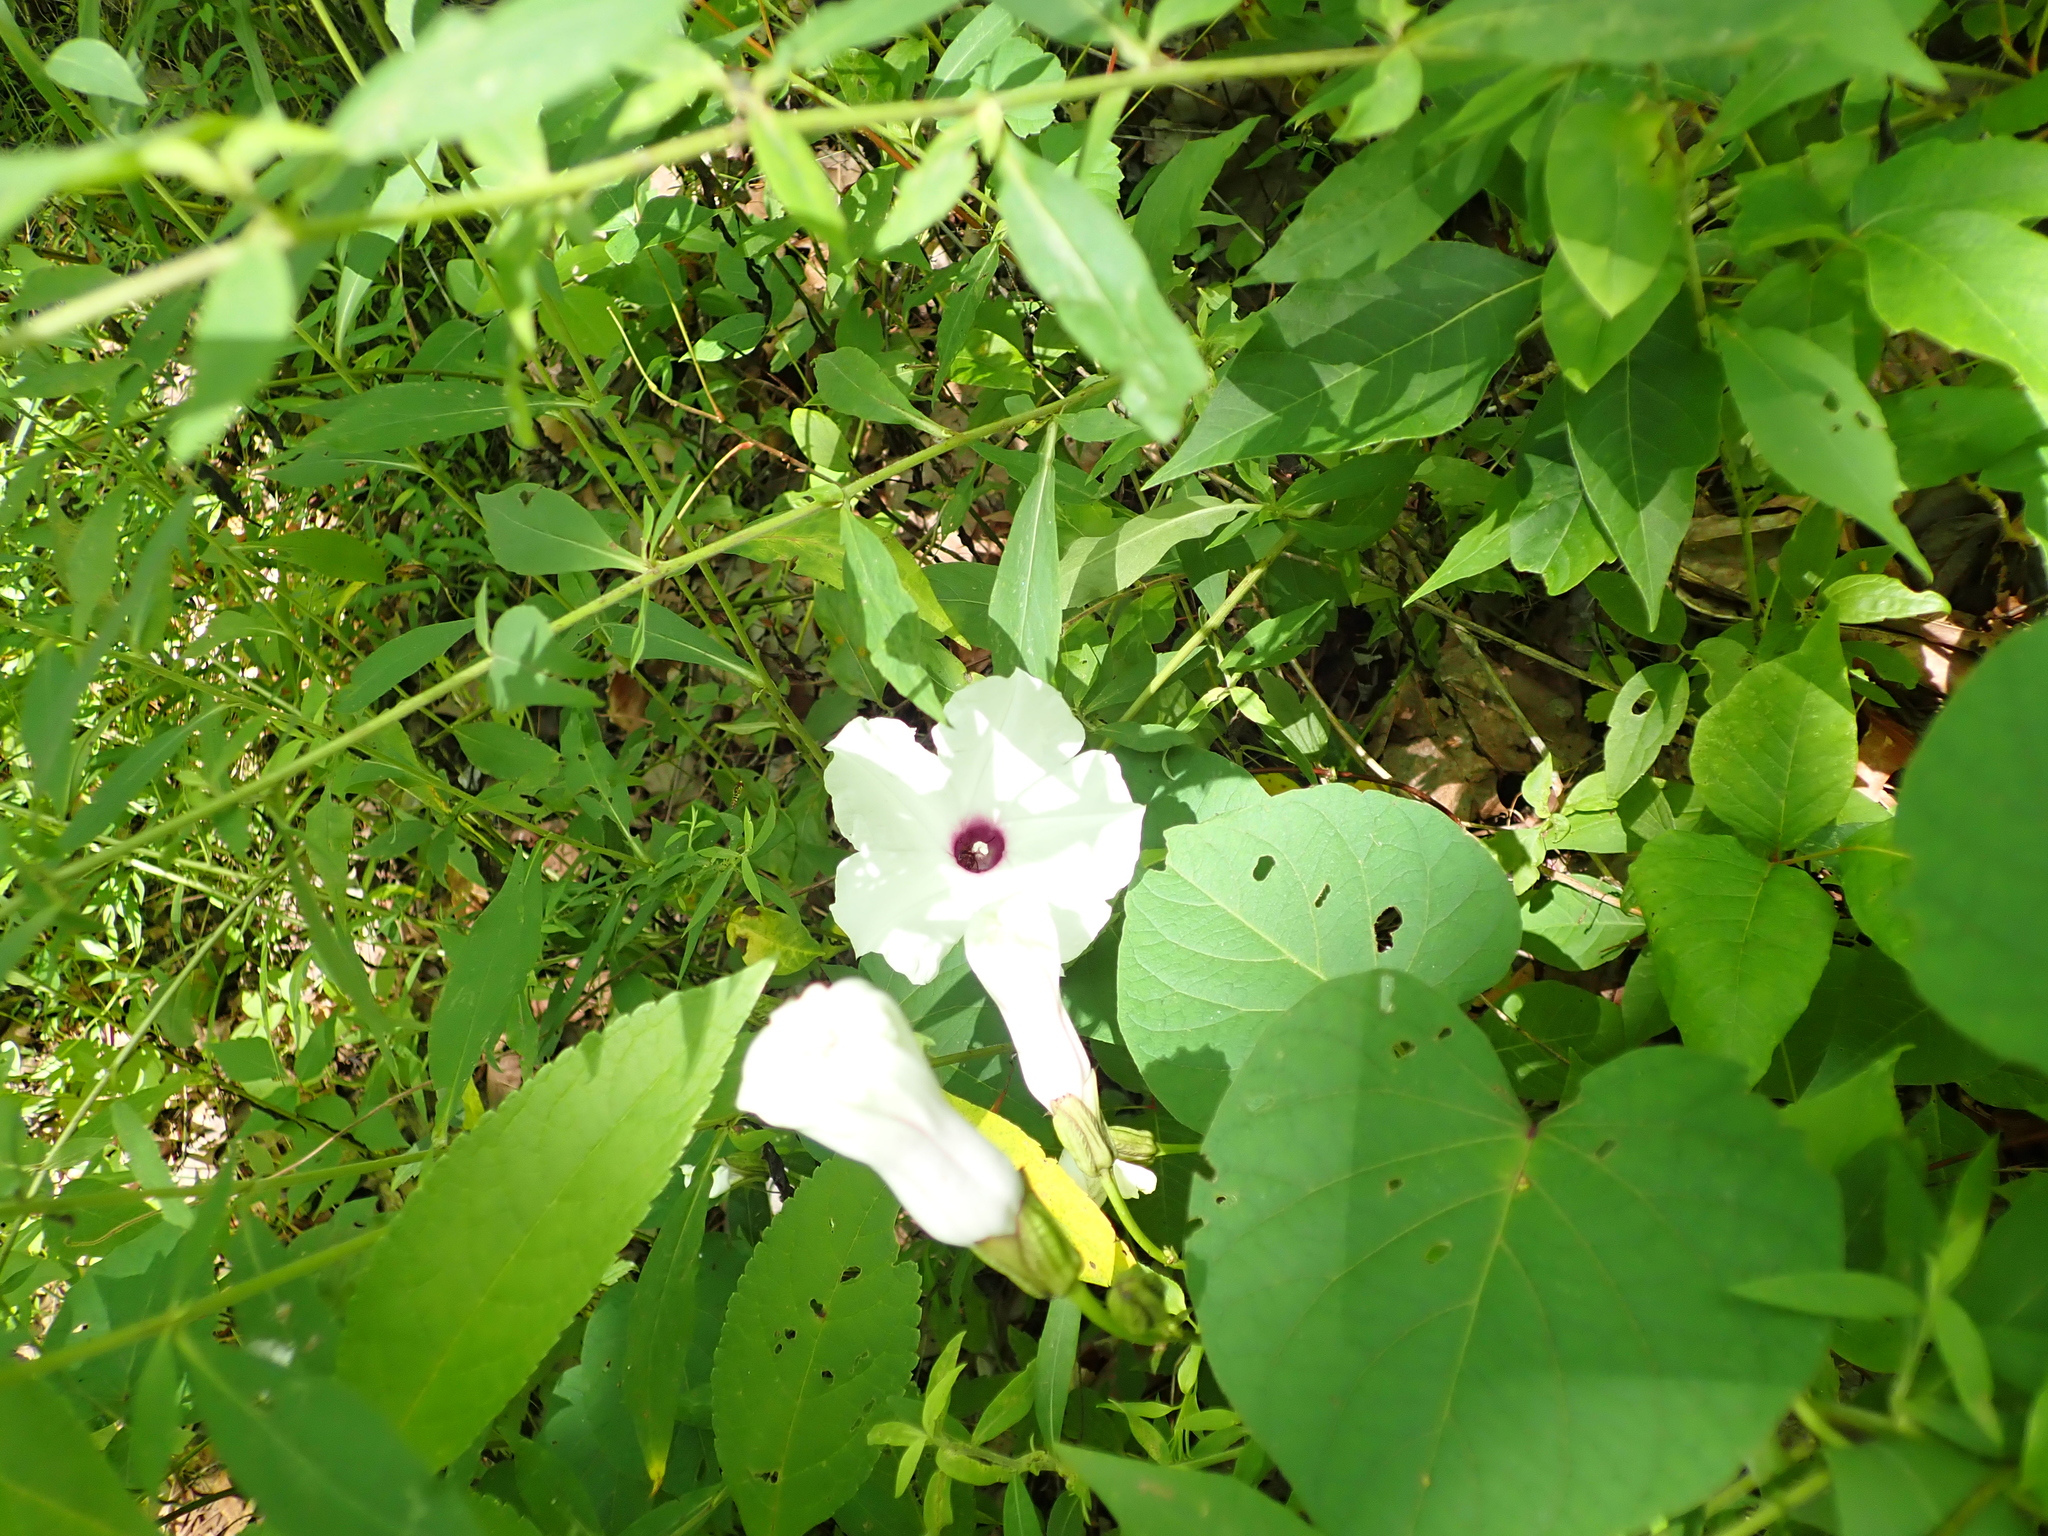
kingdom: Plantae
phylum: Tracheophyta
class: Magnoliopsida
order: Solanales
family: Convolvulaceae
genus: Ipomoea
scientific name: Ipomoea pandurata
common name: Man-of-the-earth
